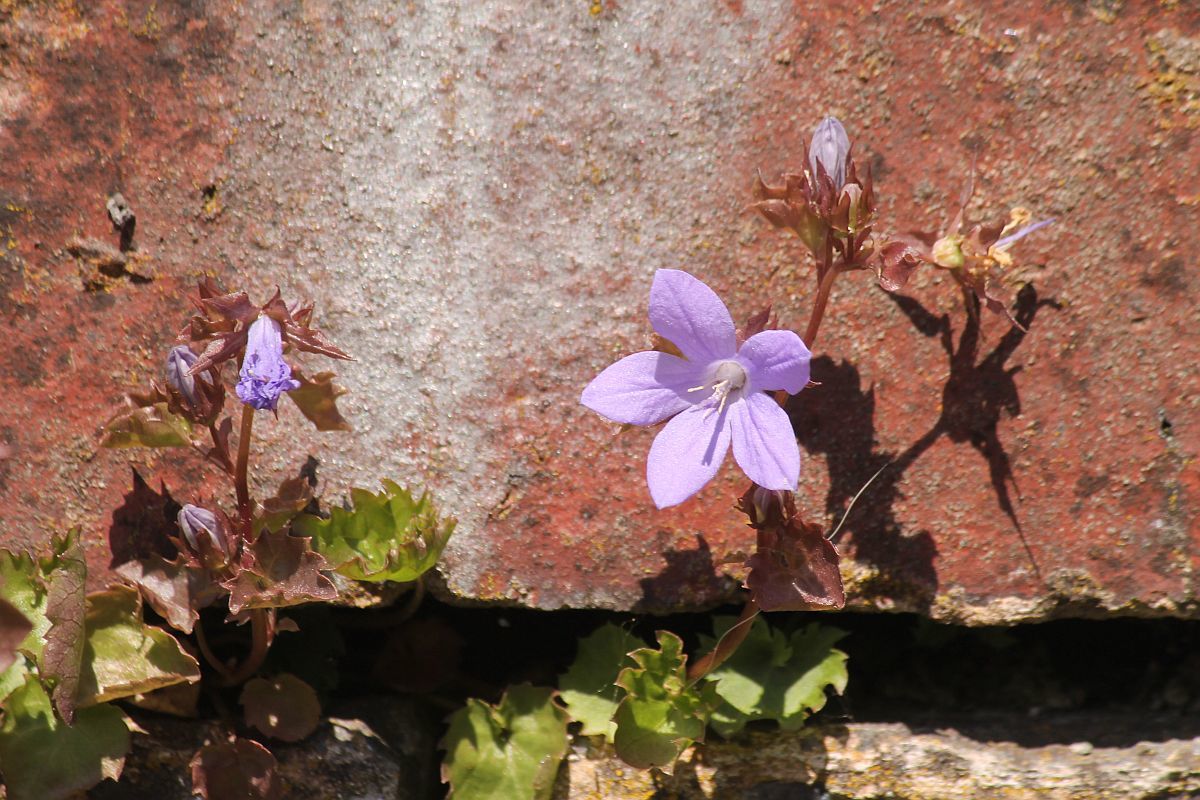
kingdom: Plantae
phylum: Tracheophyta
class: Magnoliopsida
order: Asterales
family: Campanulaceae
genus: Campanula
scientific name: Campanula poscharskyana
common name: Trailing bellflower
